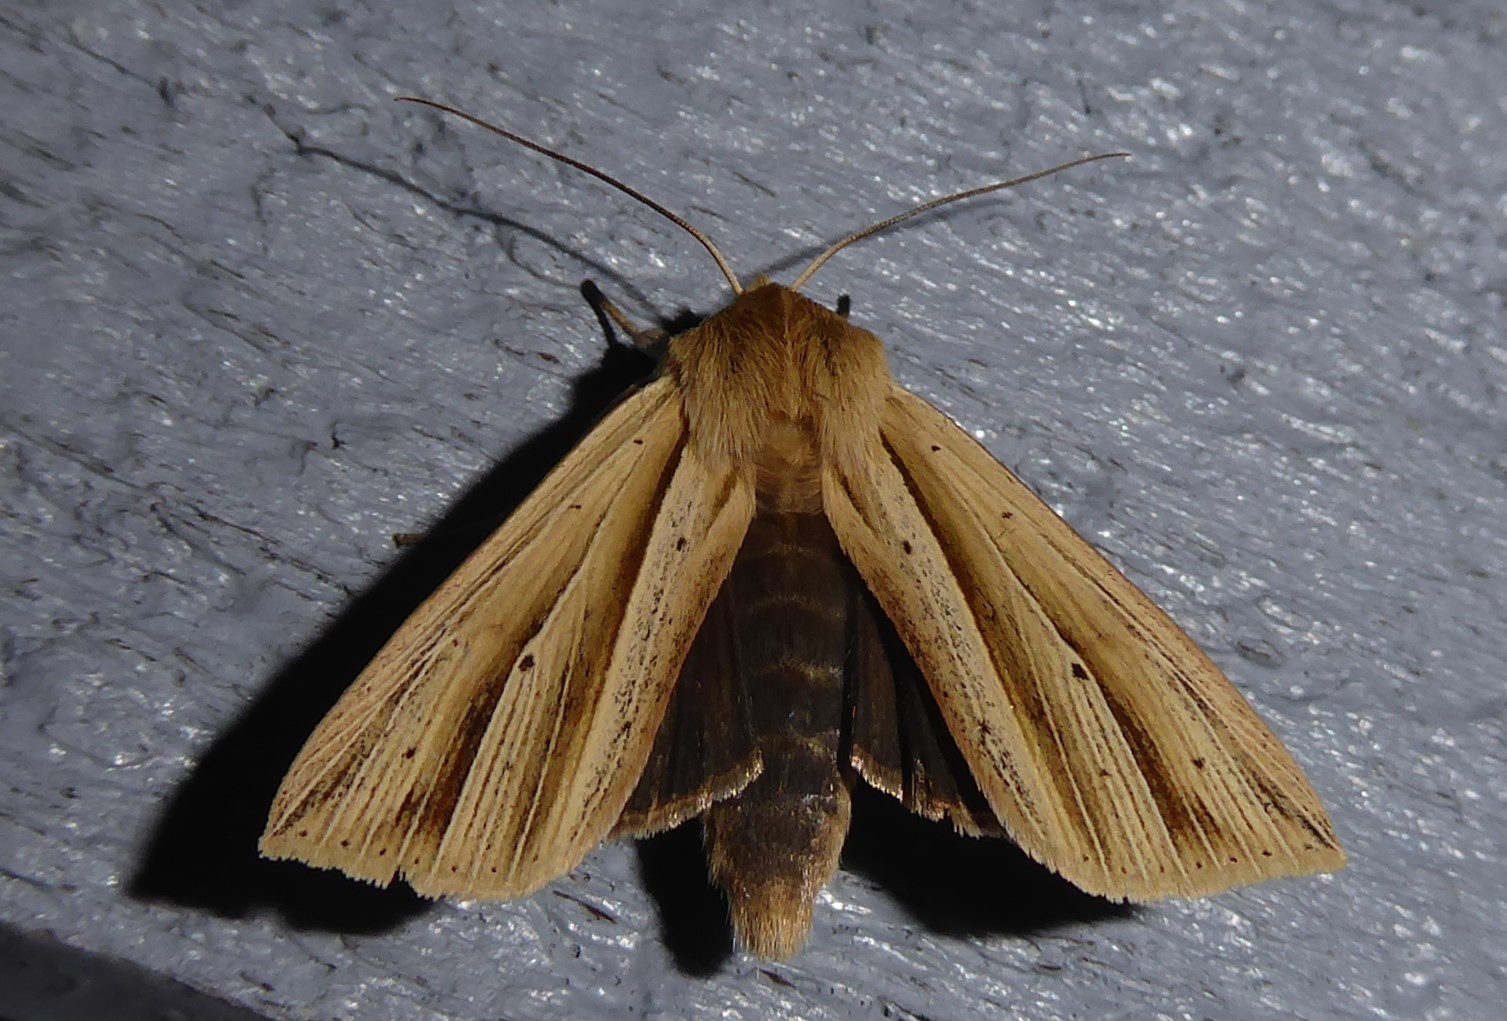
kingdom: Animalia
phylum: Arthropoda
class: Insecta
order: Lepidoptera
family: Noctuidae
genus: Ichneutica
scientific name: Ichneutica sulcana
